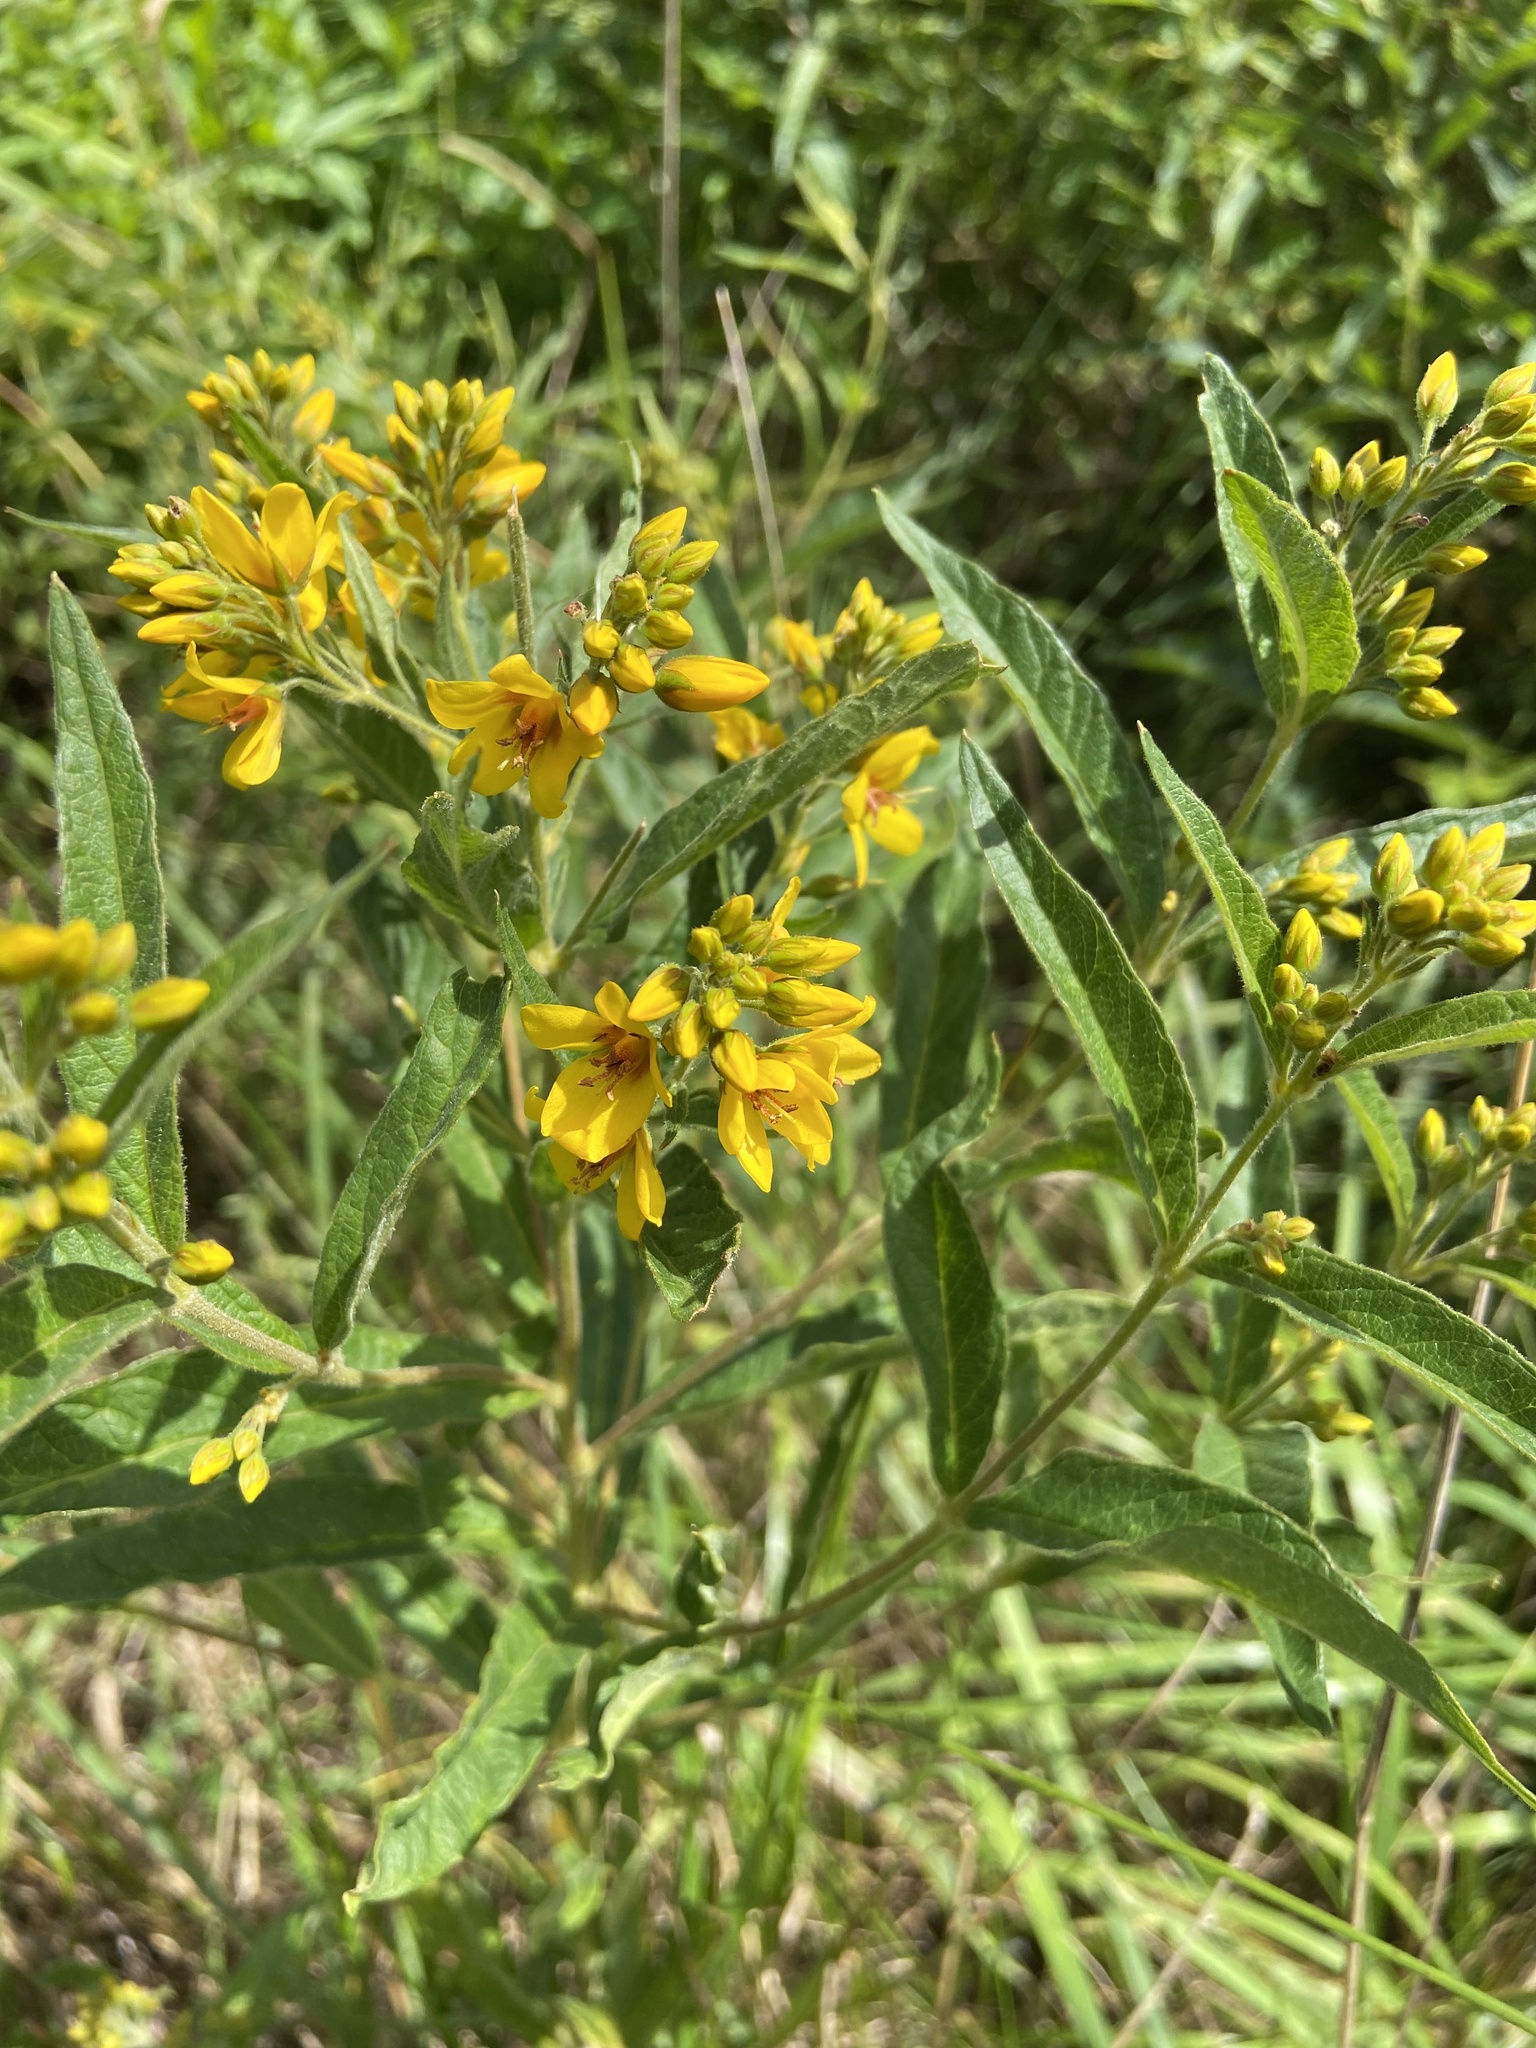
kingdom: Plantae
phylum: Tracheophyta
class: Magnoliopsida
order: Ericales
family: Primulaceae
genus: Lysimachia
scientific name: Lysimachia vulgaris
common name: Yellow loosestrife
